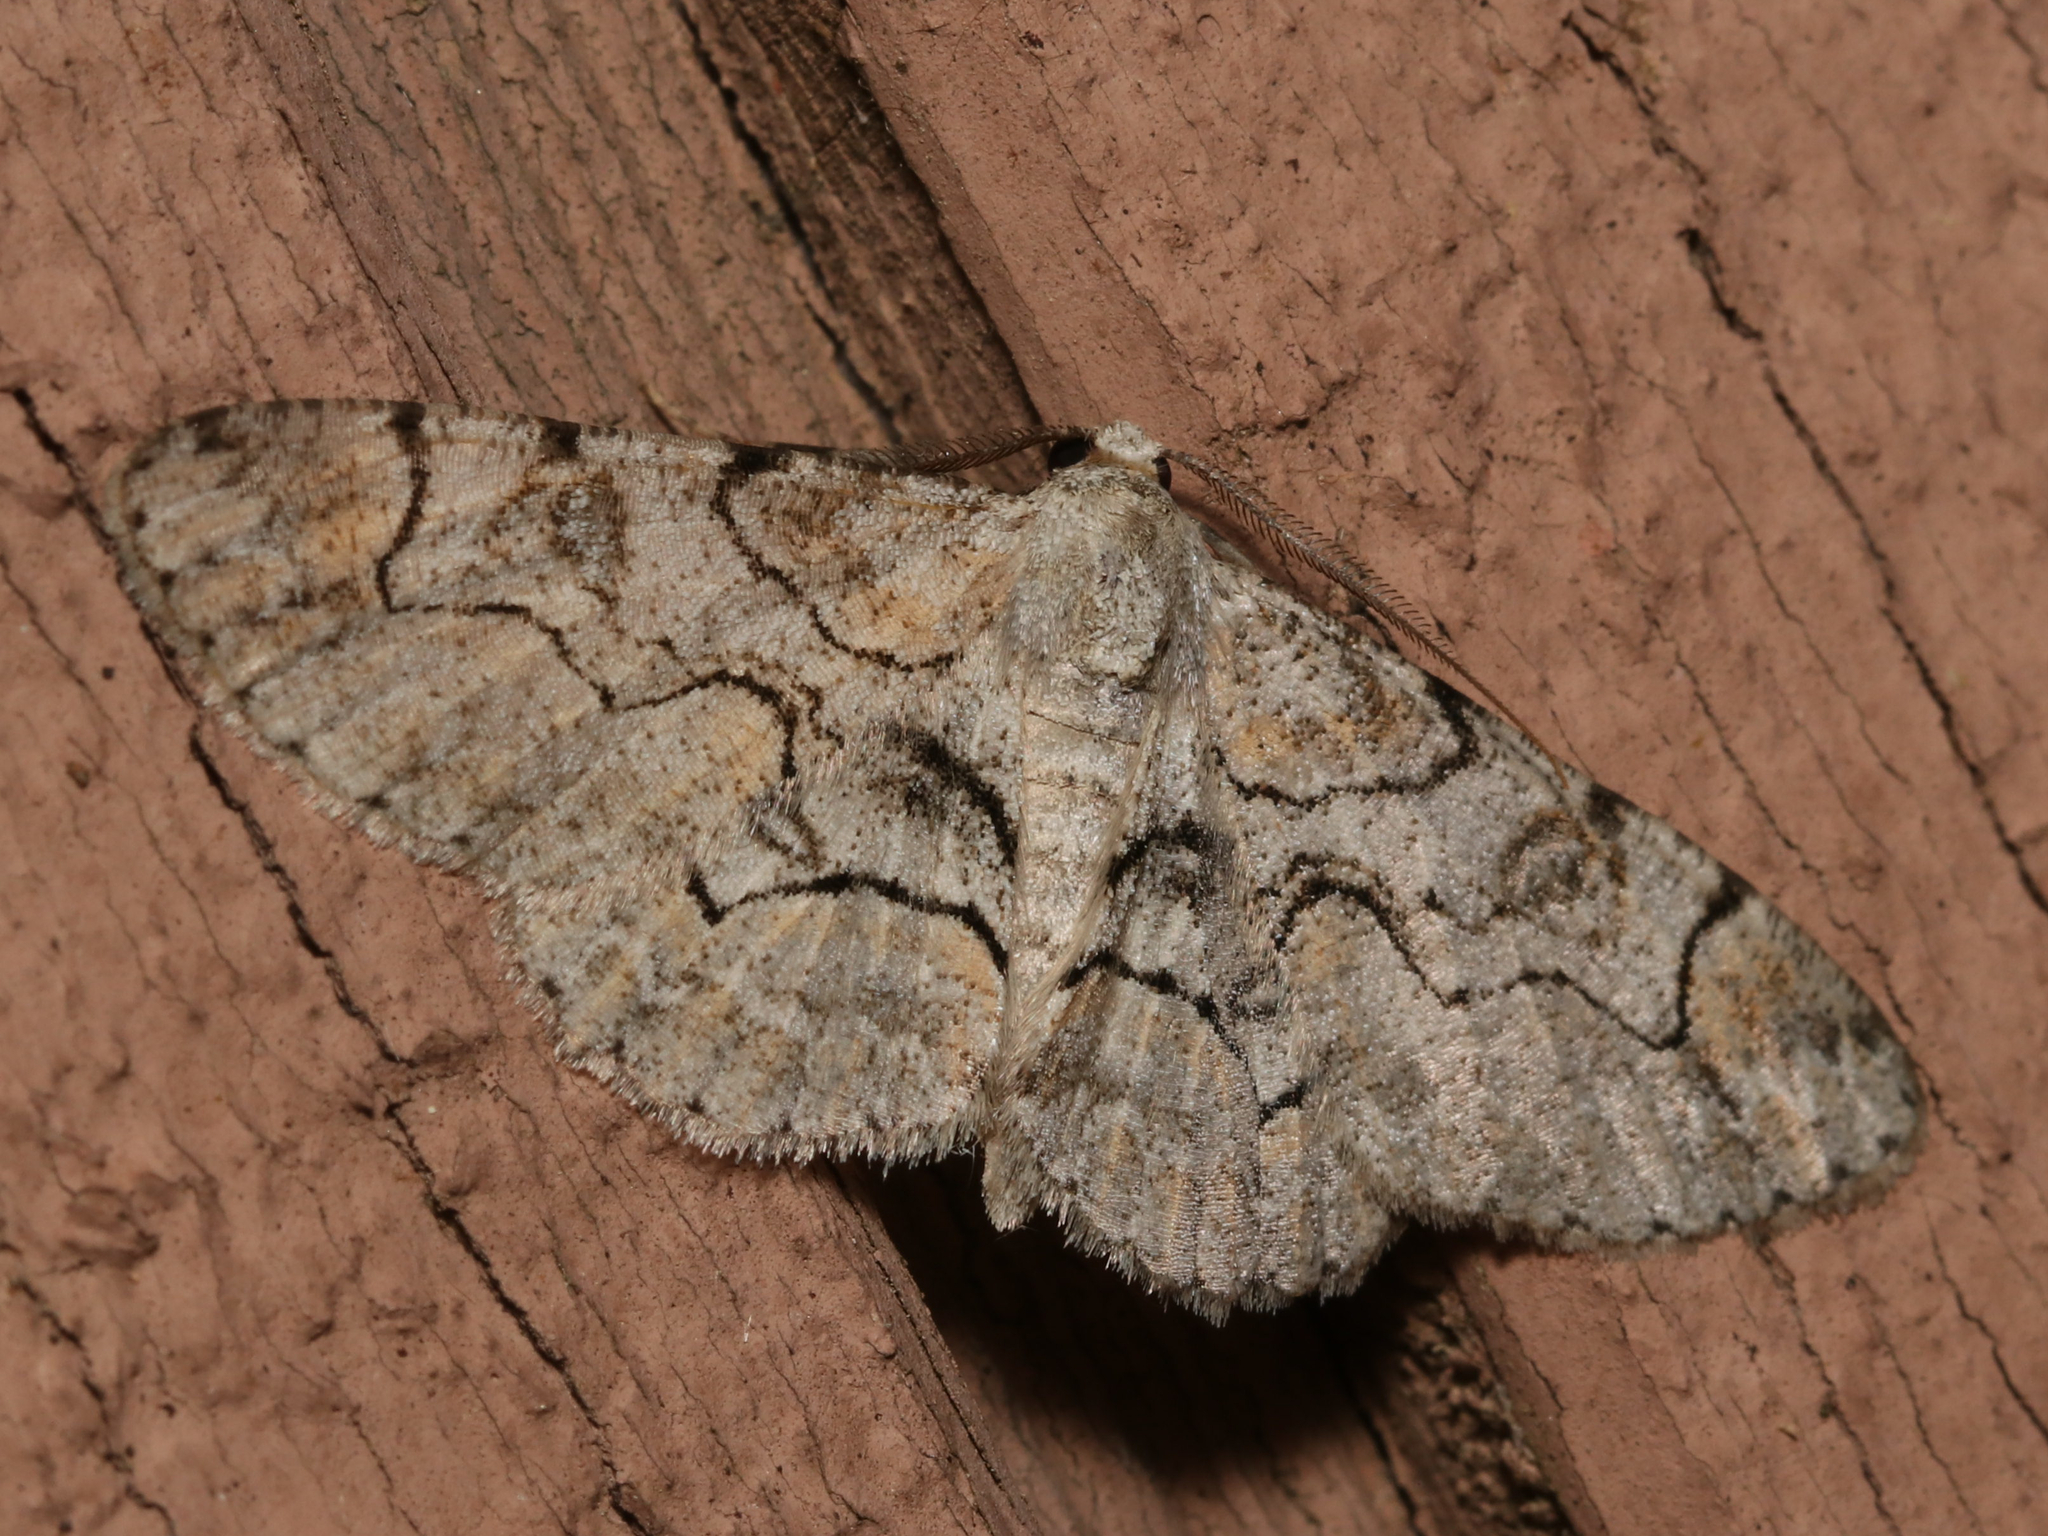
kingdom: Animalia
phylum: Arthropoda
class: Insecta
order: Lepidoptera
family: Geometridae
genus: Iridopsis
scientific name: Iridopsis larvaria
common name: Bent-line gray
